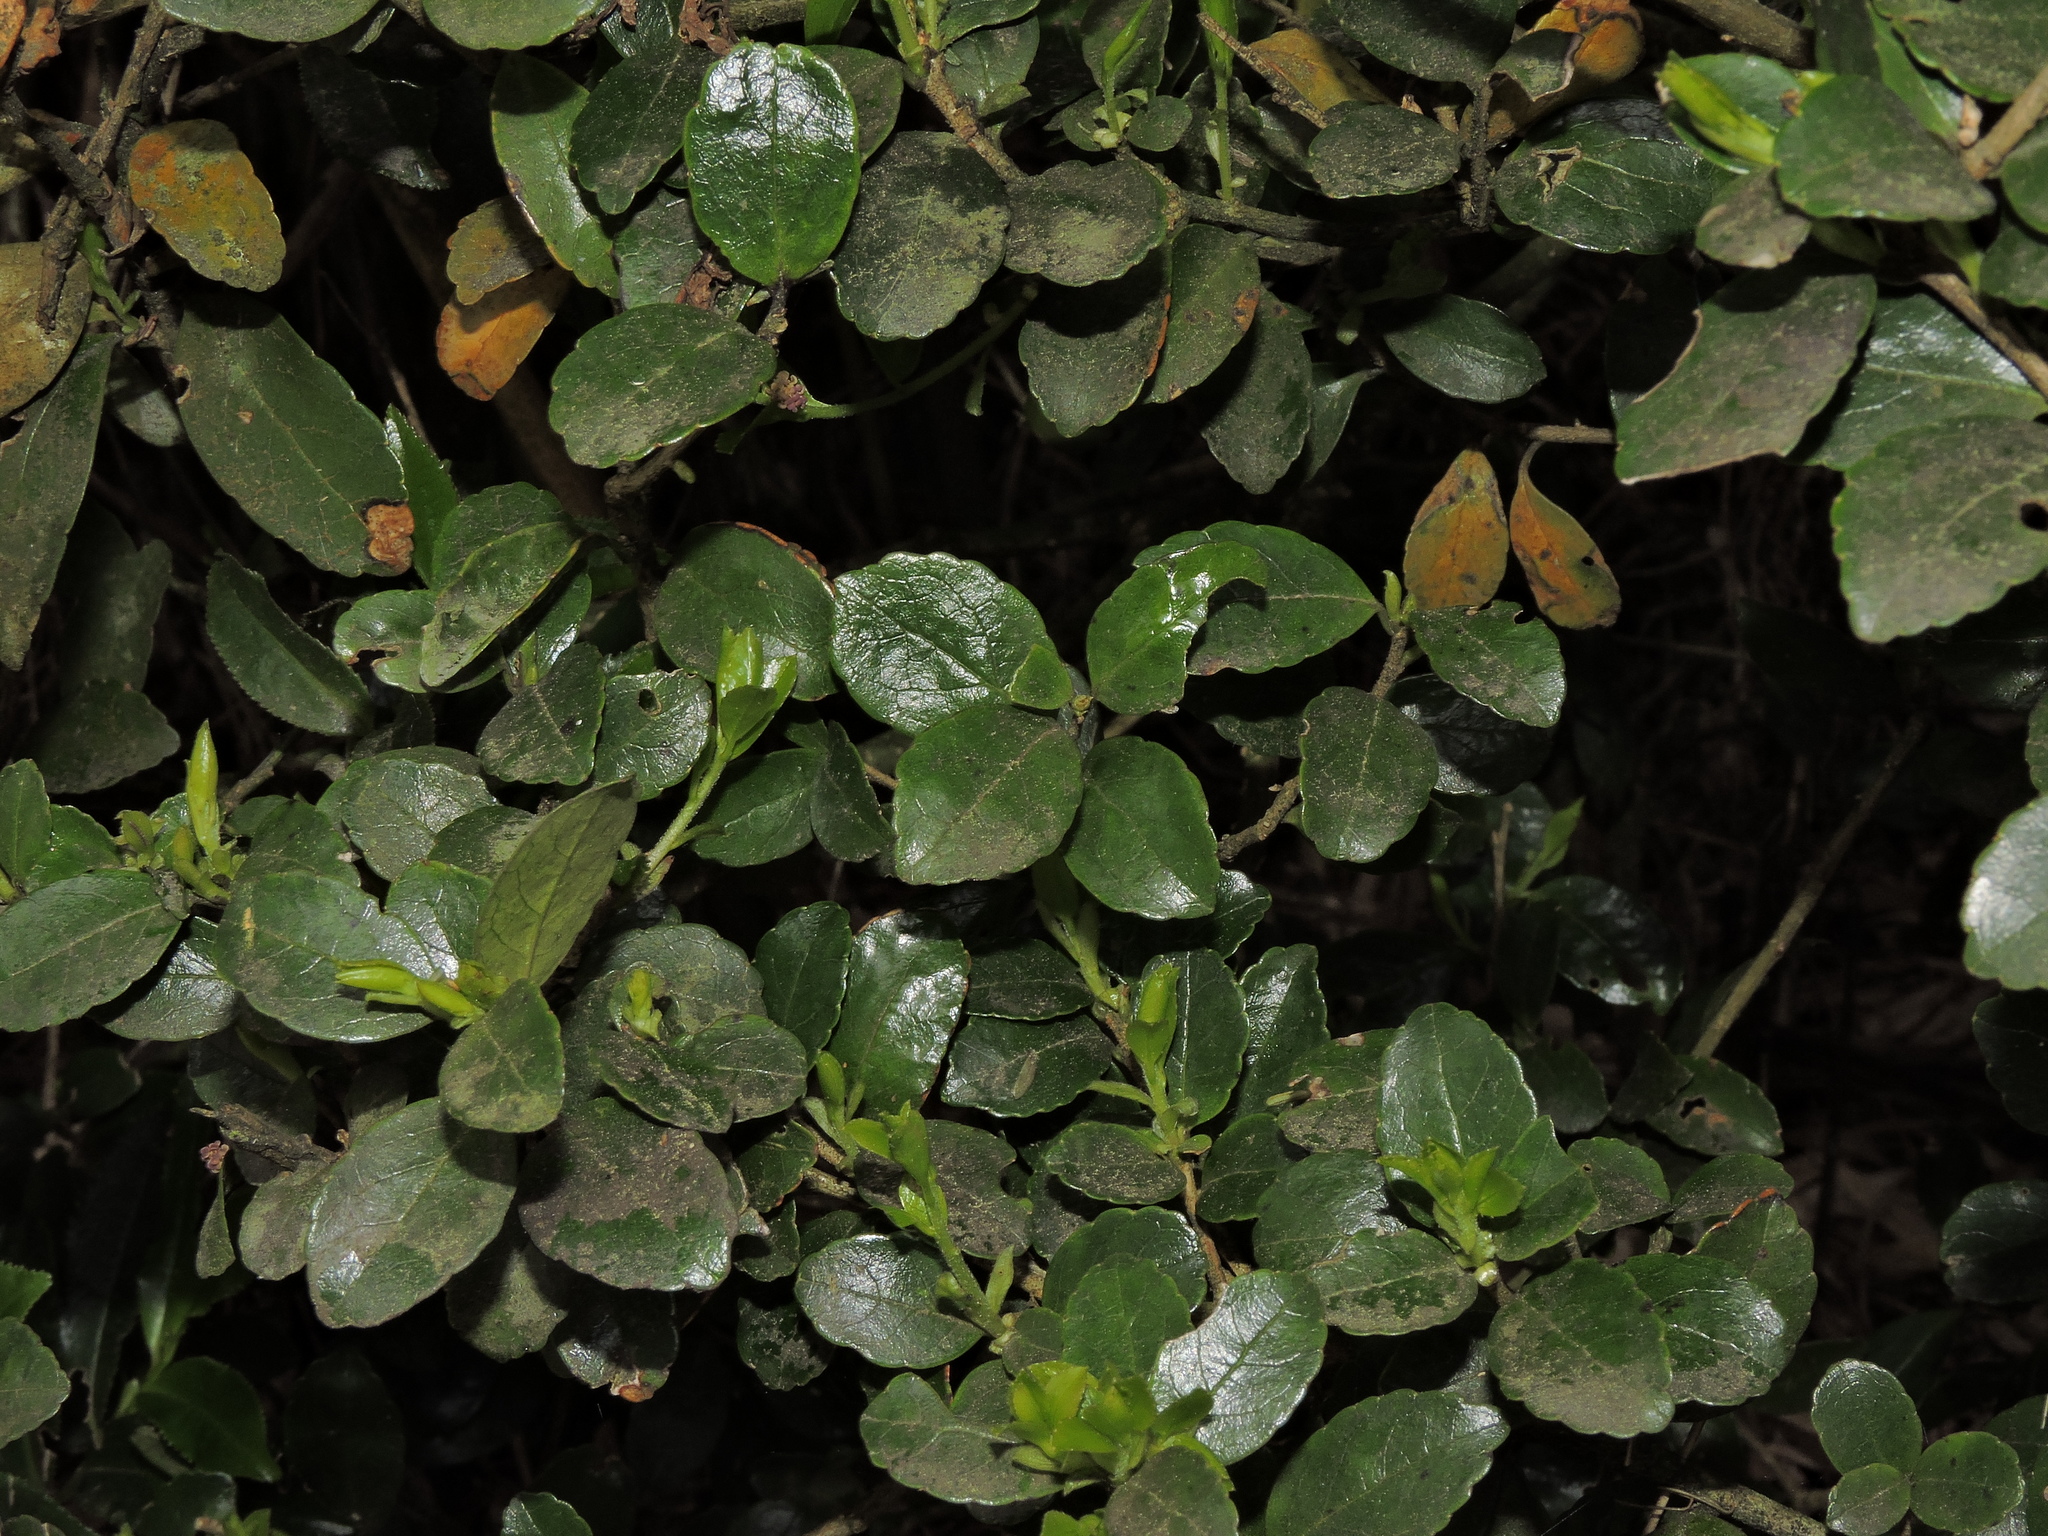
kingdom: Plantae
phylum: Tracheophyta
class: Magnoliopsida
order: Ericales
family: Symplocaceae
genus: Symplocos
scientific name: Symplocos nokoensis
